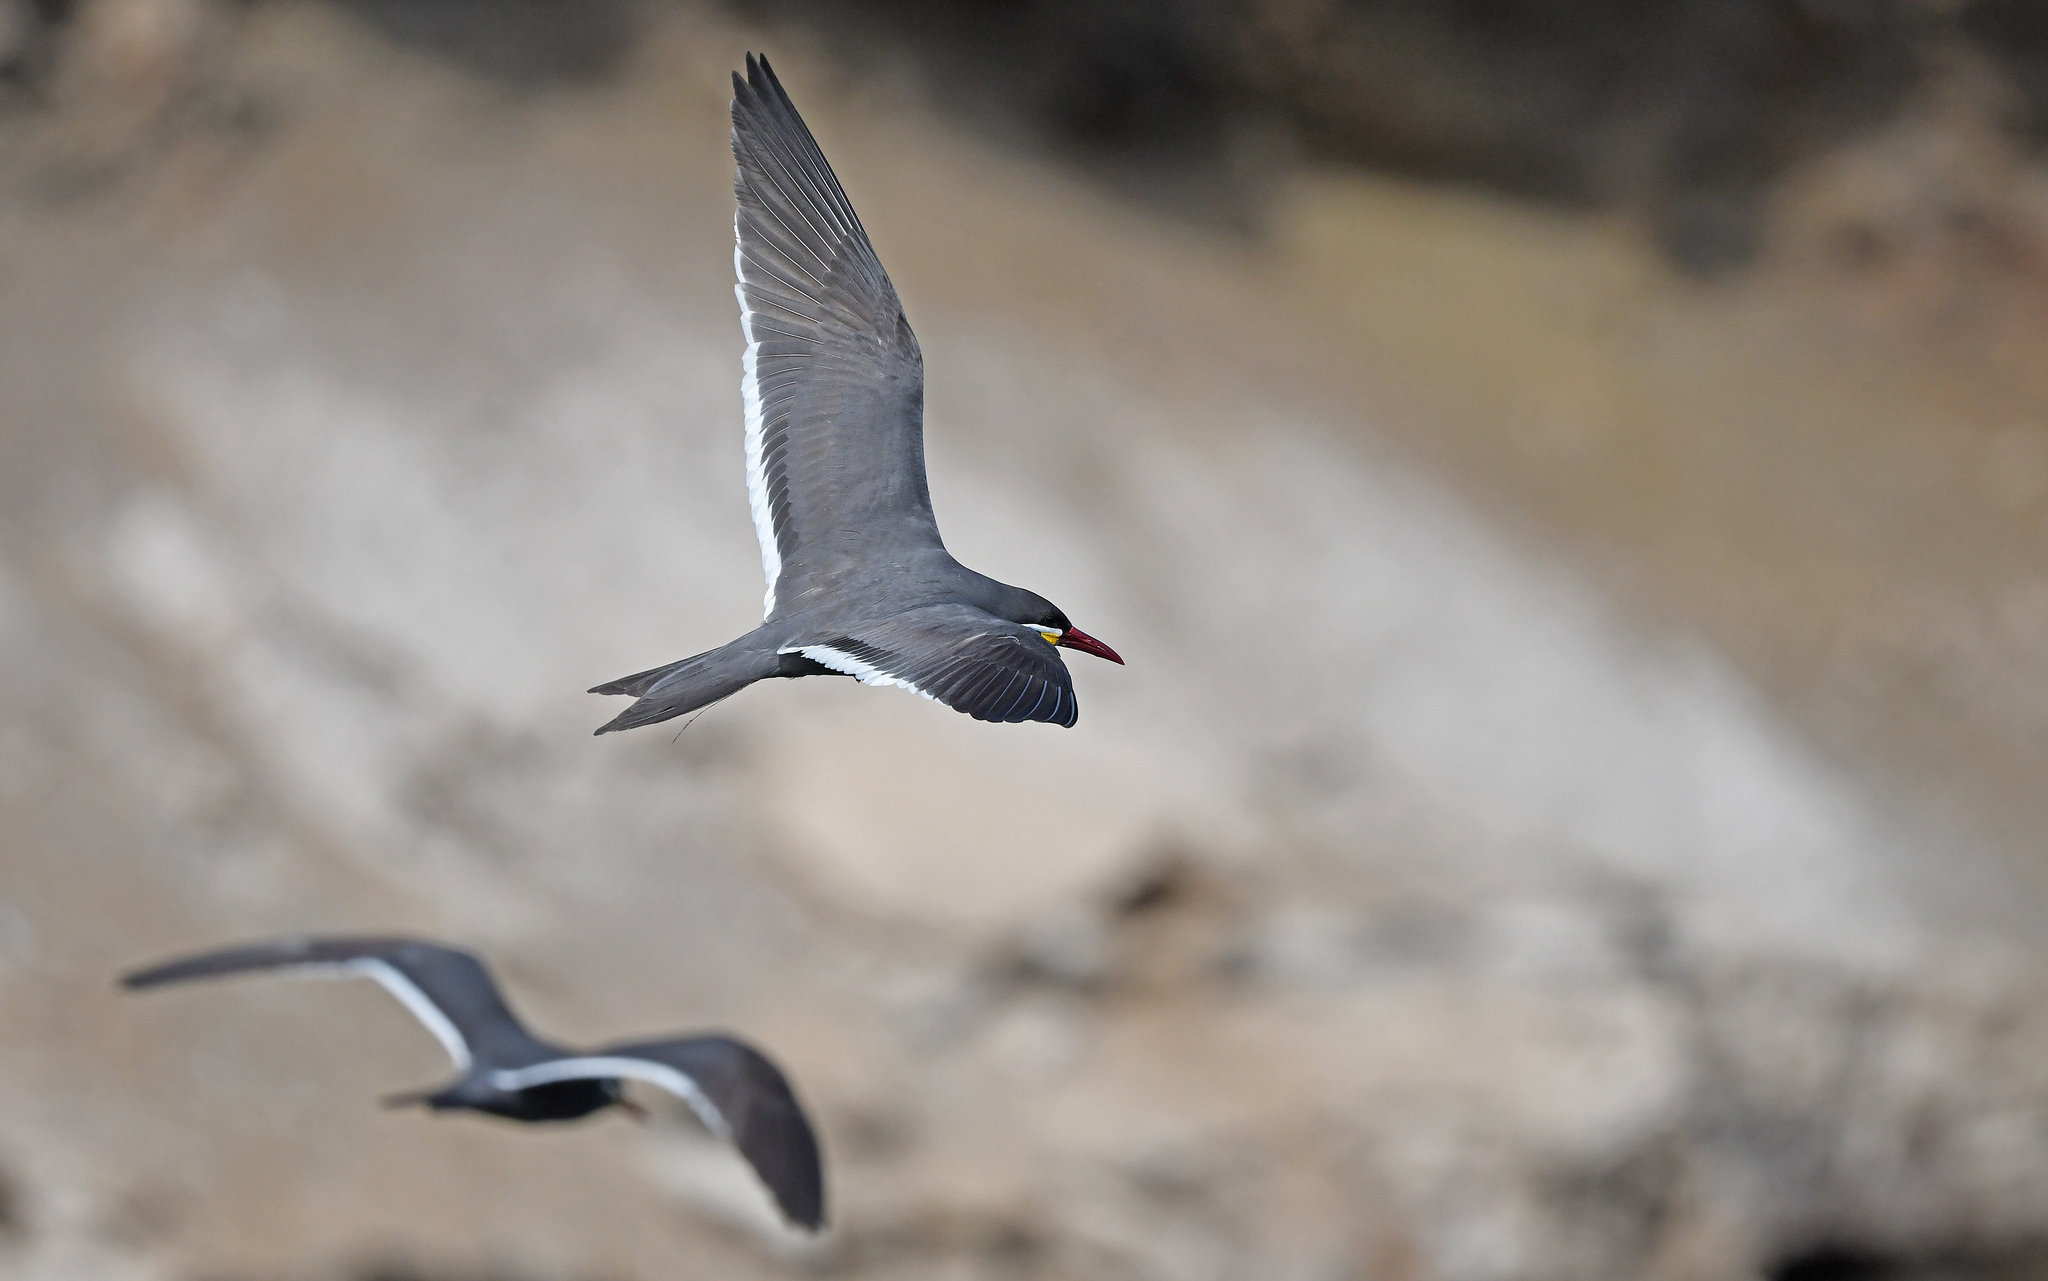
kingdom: Animalia
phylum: Chordata
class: Aves
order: Charadriiformes
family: Laridae
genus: Larosterna
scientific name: Larosterna inca
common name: Inca tern
